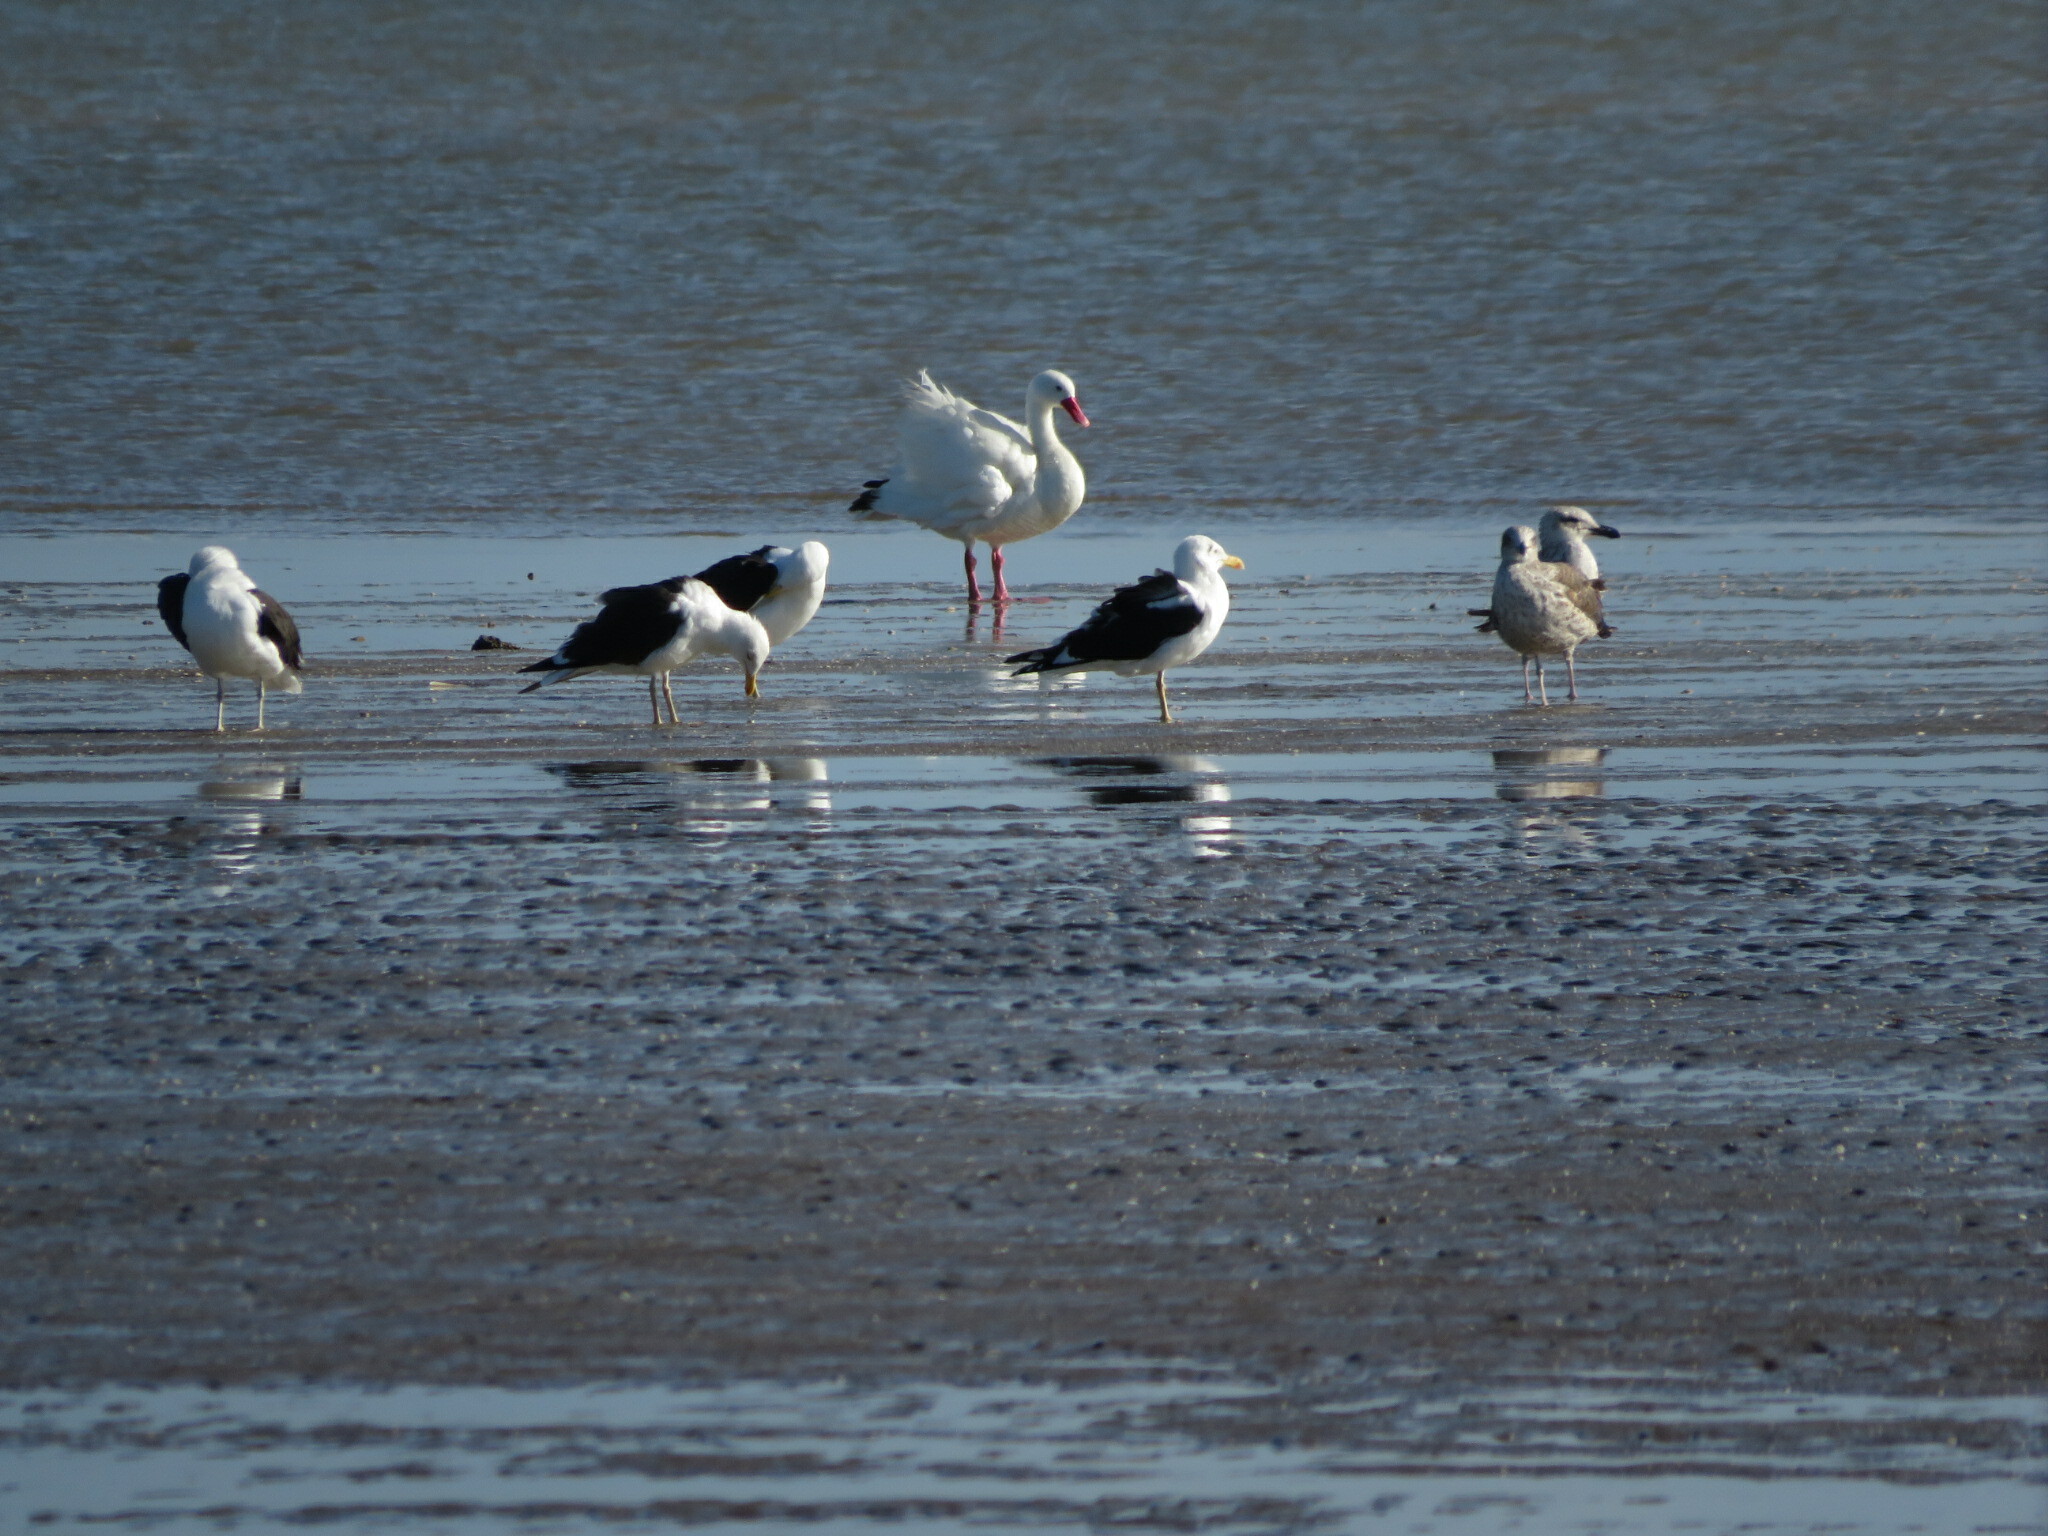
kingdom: Animalia
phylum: Chordata
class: Aves
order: Charadriiformes
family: Laridae
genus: Larus
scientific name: Larus dominicanus
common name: Kelp gull
